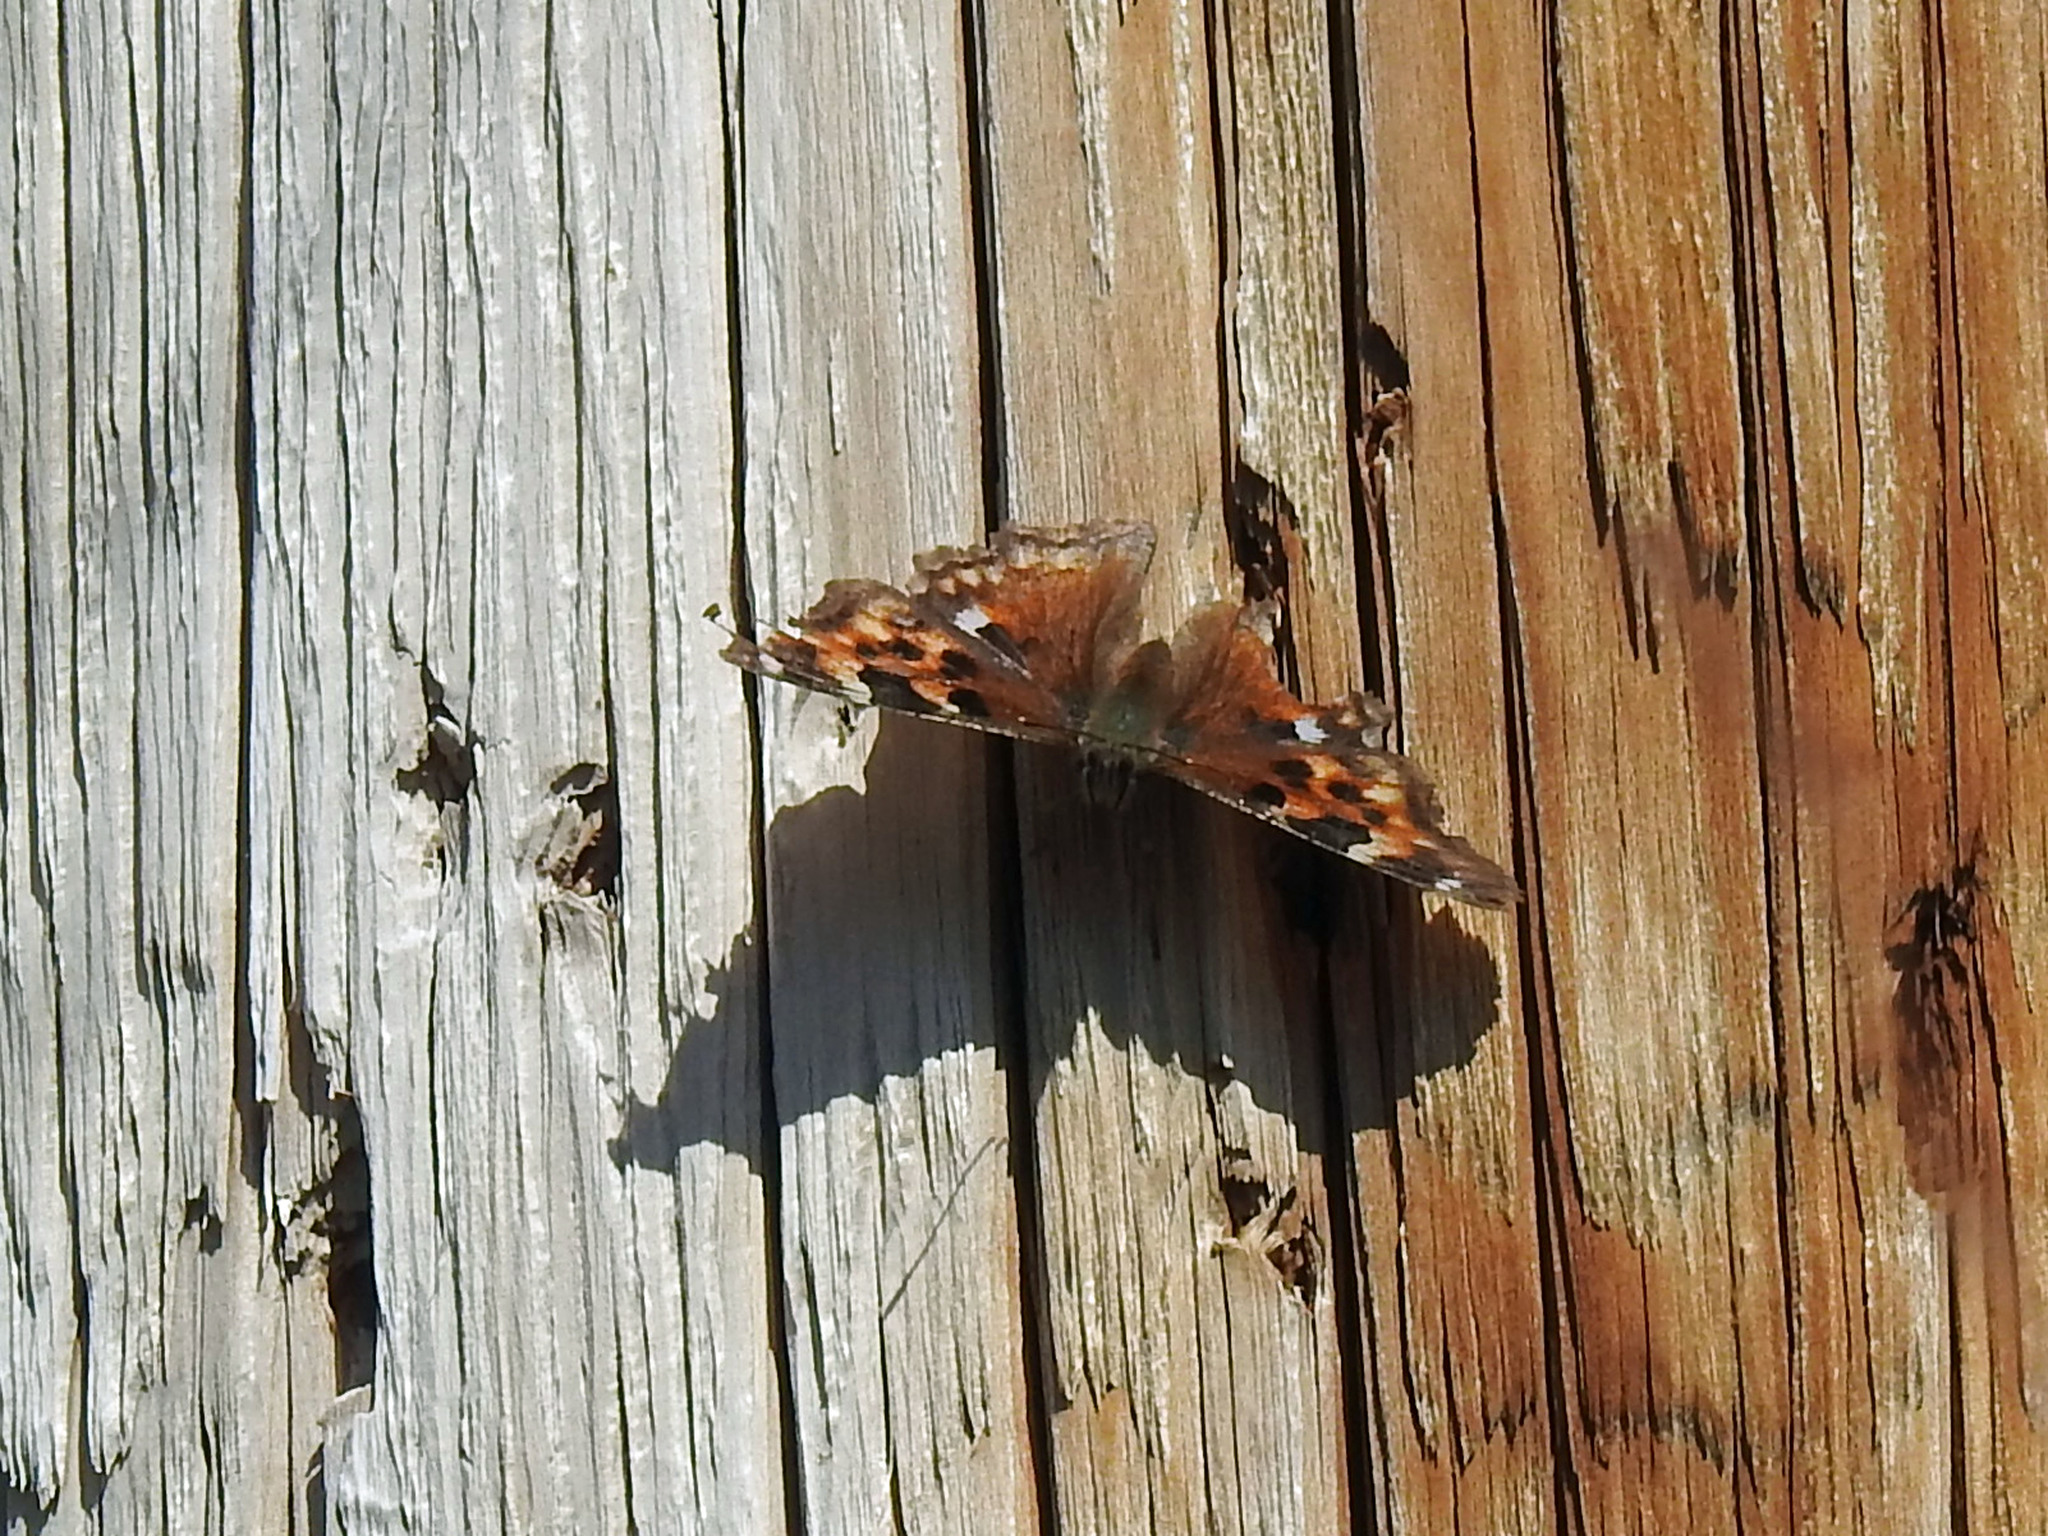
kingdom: Animalia
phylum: Arthropoda
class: Insecta
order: Lepidoptera
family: Nymphalidae
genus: Polygonia
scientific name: Polygonia vaualbum
